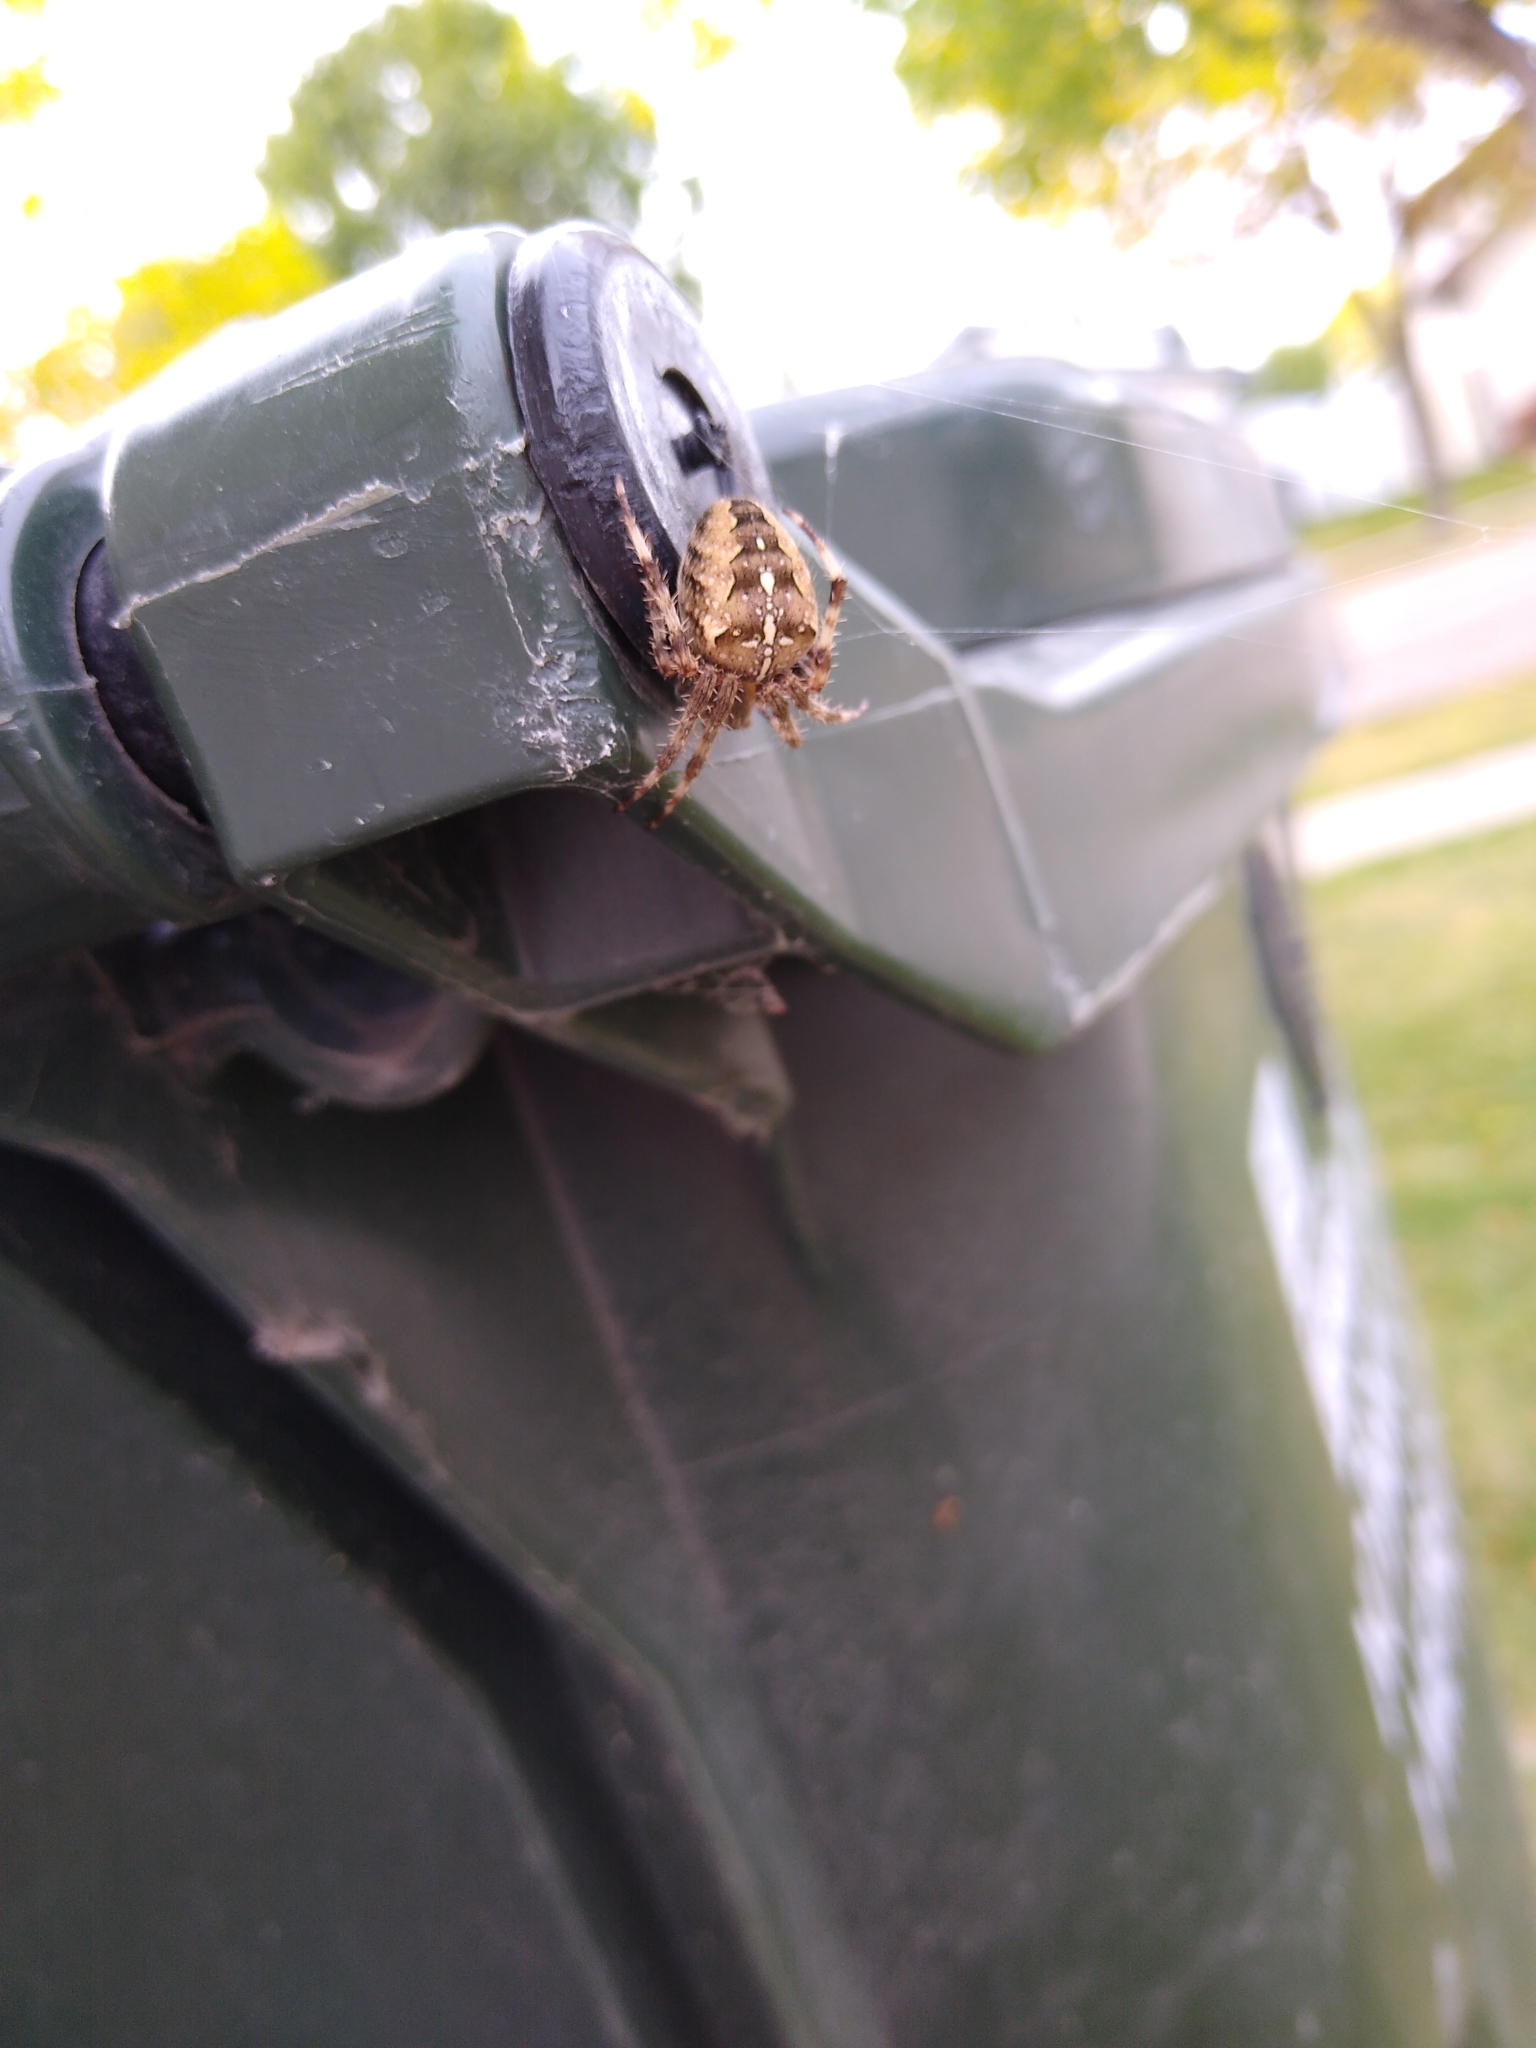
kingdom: Animalia
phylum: Arthropoda
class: Arachnida
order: Araneae
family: Araneidae
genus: Araneus
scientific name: Araneus diadematus
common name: Cross orbweaver
